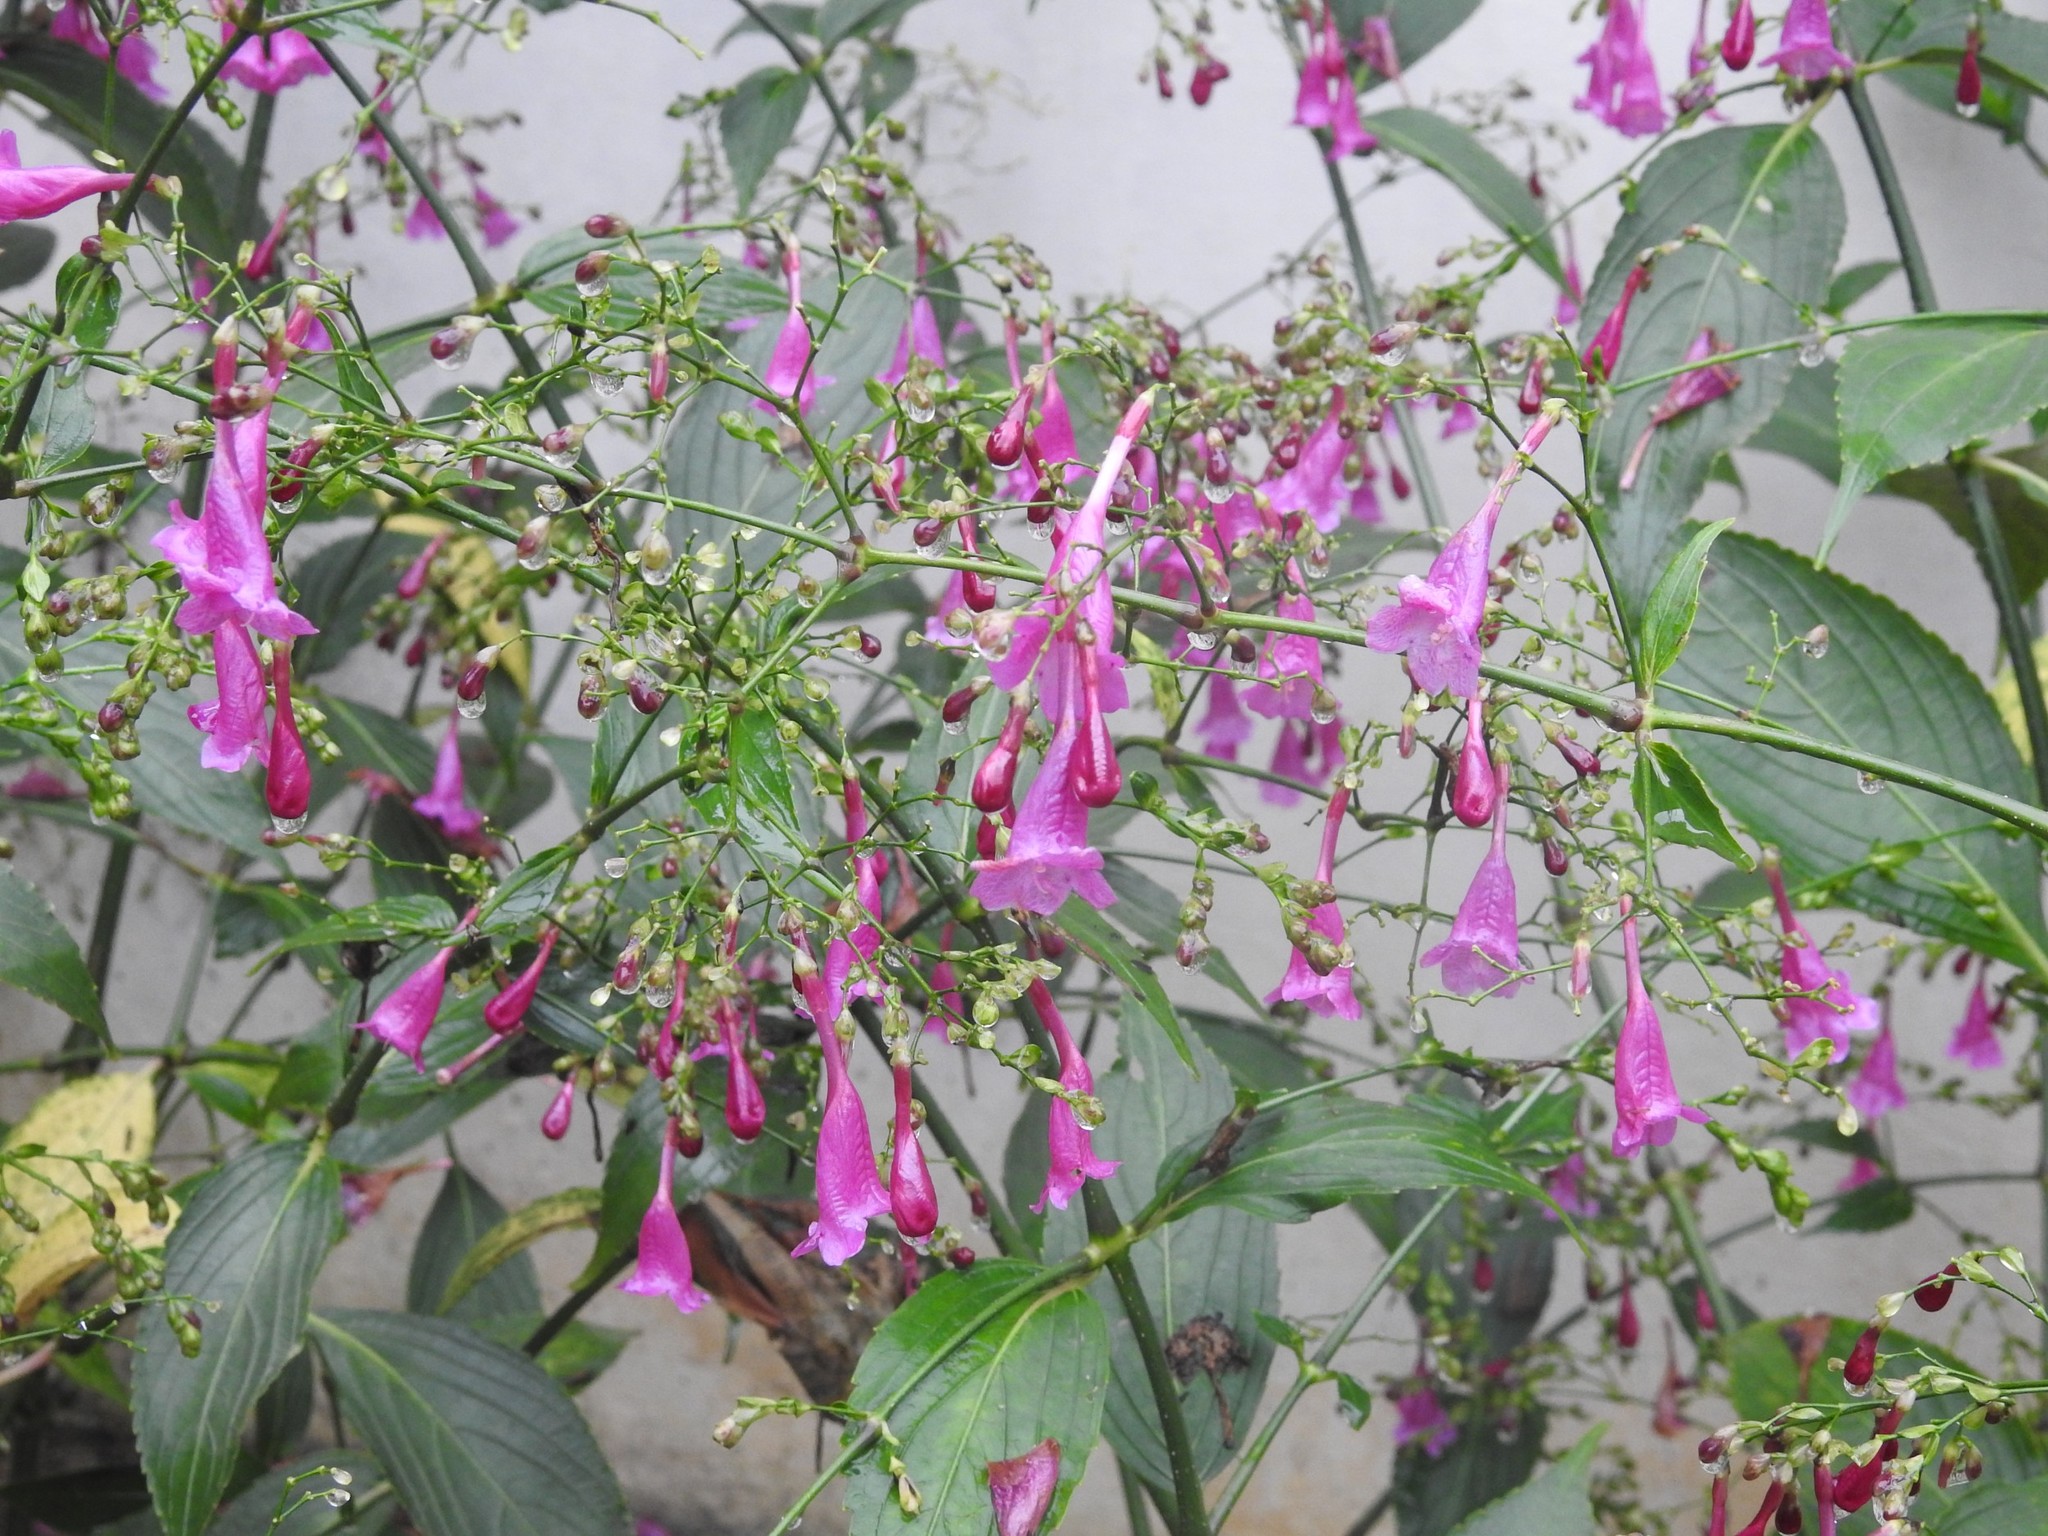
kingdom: Plantae
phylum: Tracheophyta
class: Magnoliopsida
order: Lamiales
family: Acanthaceae
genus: Strobilanthes
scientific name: Strobilanthes hamiltoniana
